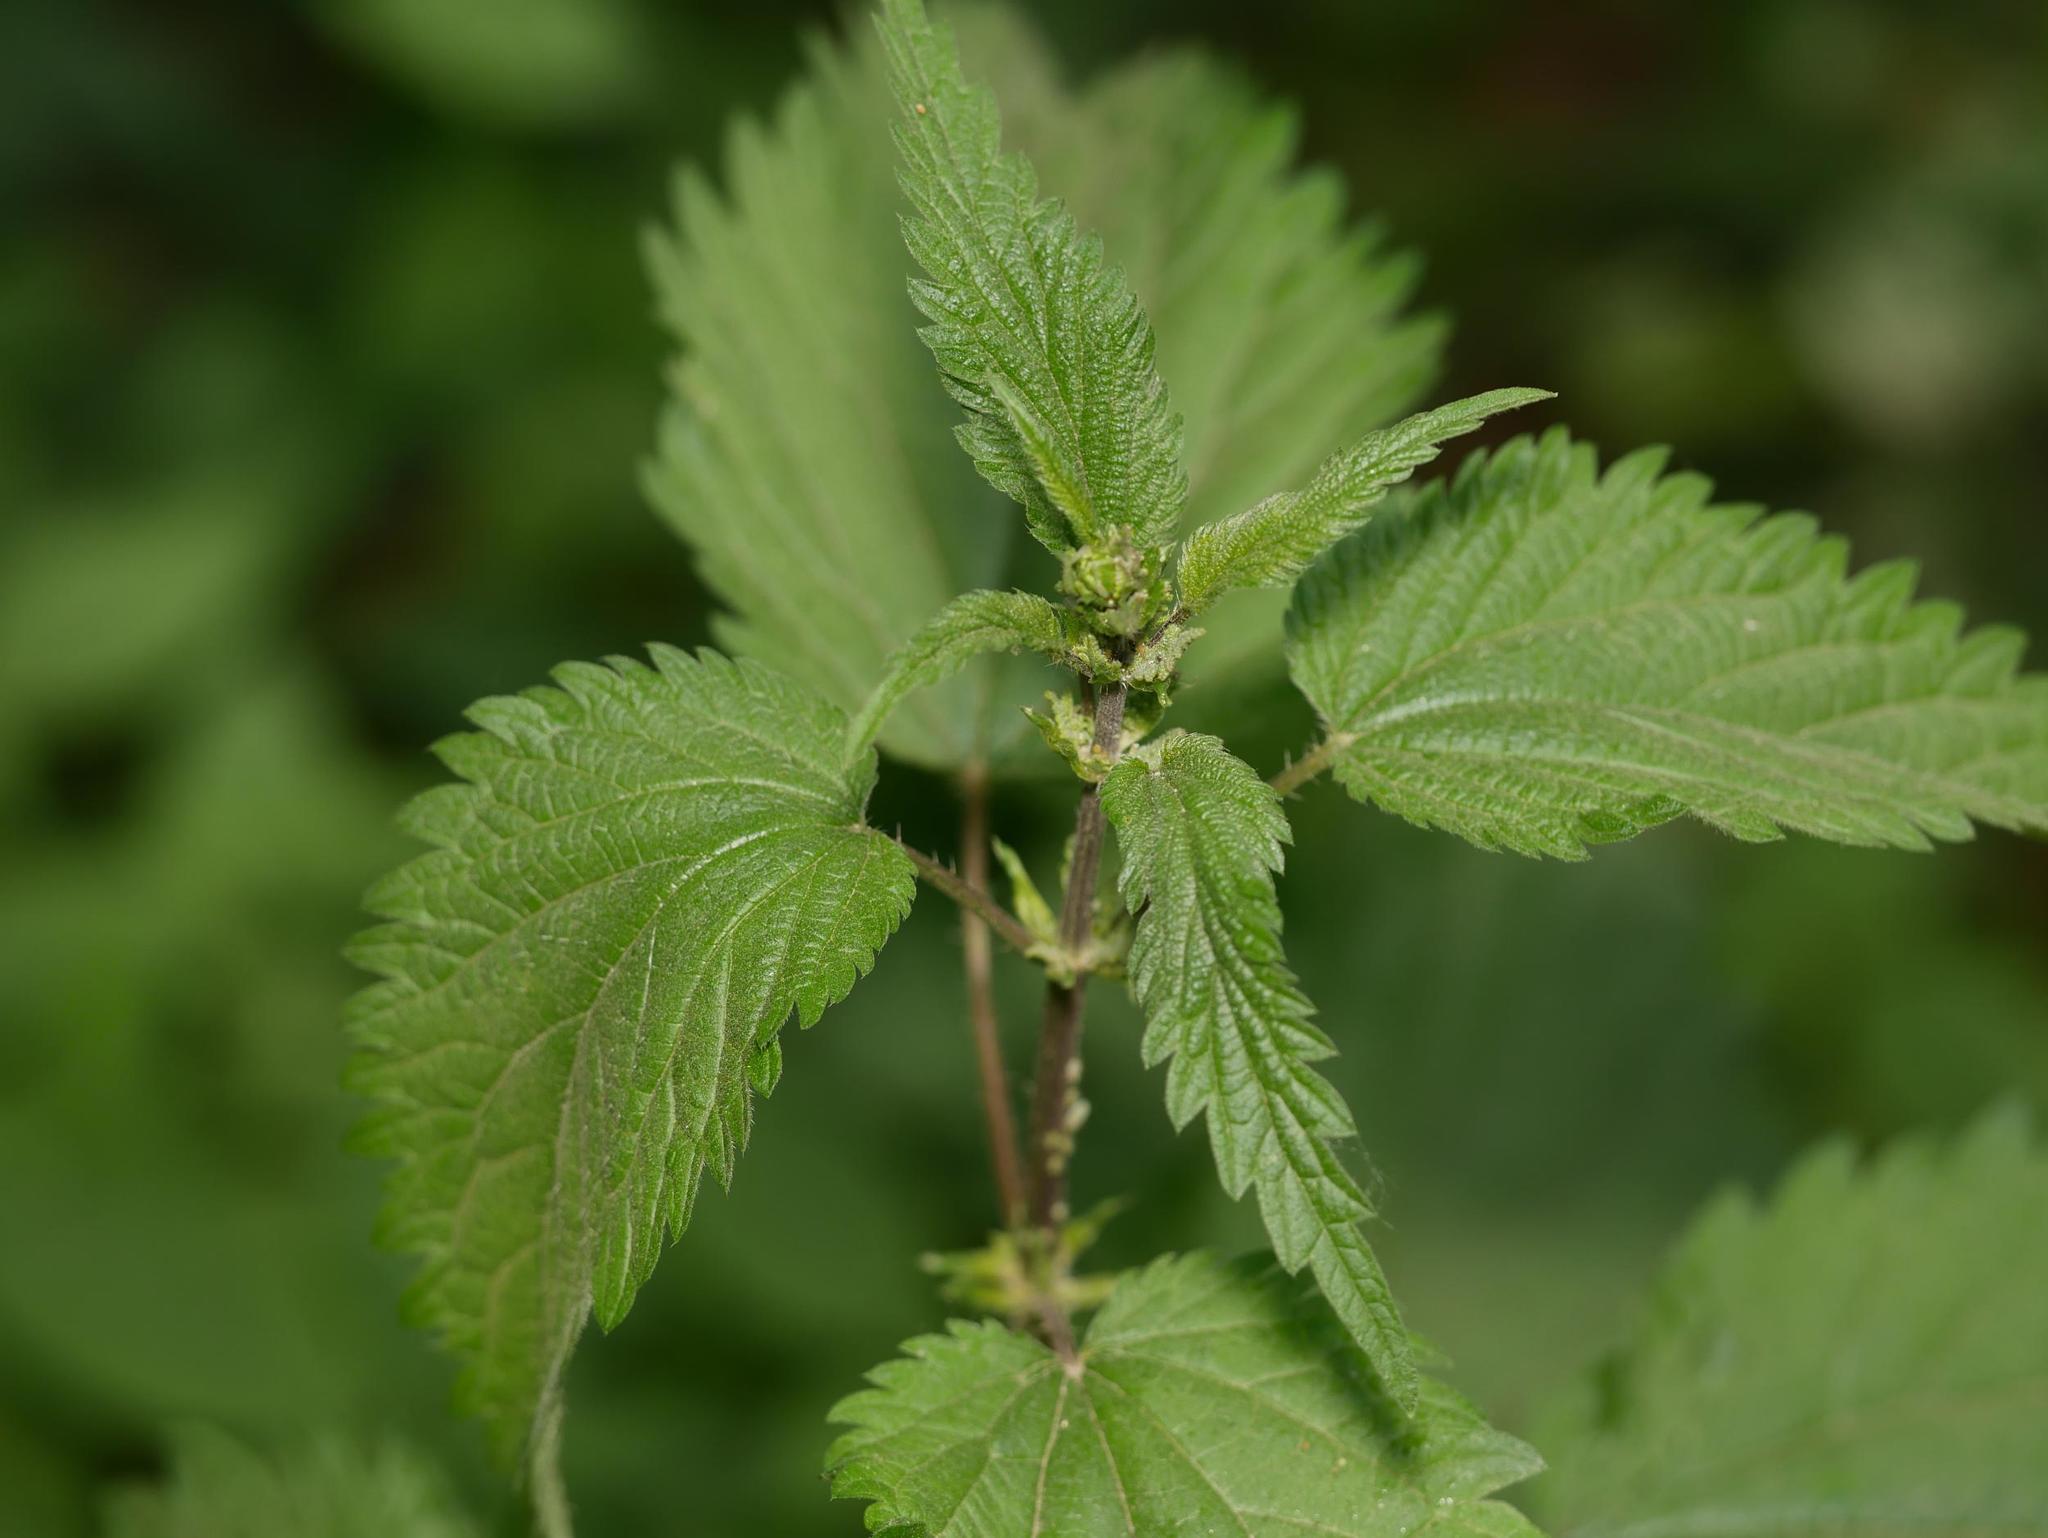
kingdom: Plantae
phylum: Tracheophyta
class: Magnoliopsida
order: Rosales
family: Urticaceae
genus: Urtica
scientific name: Urtica dioica
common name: Common nettle
